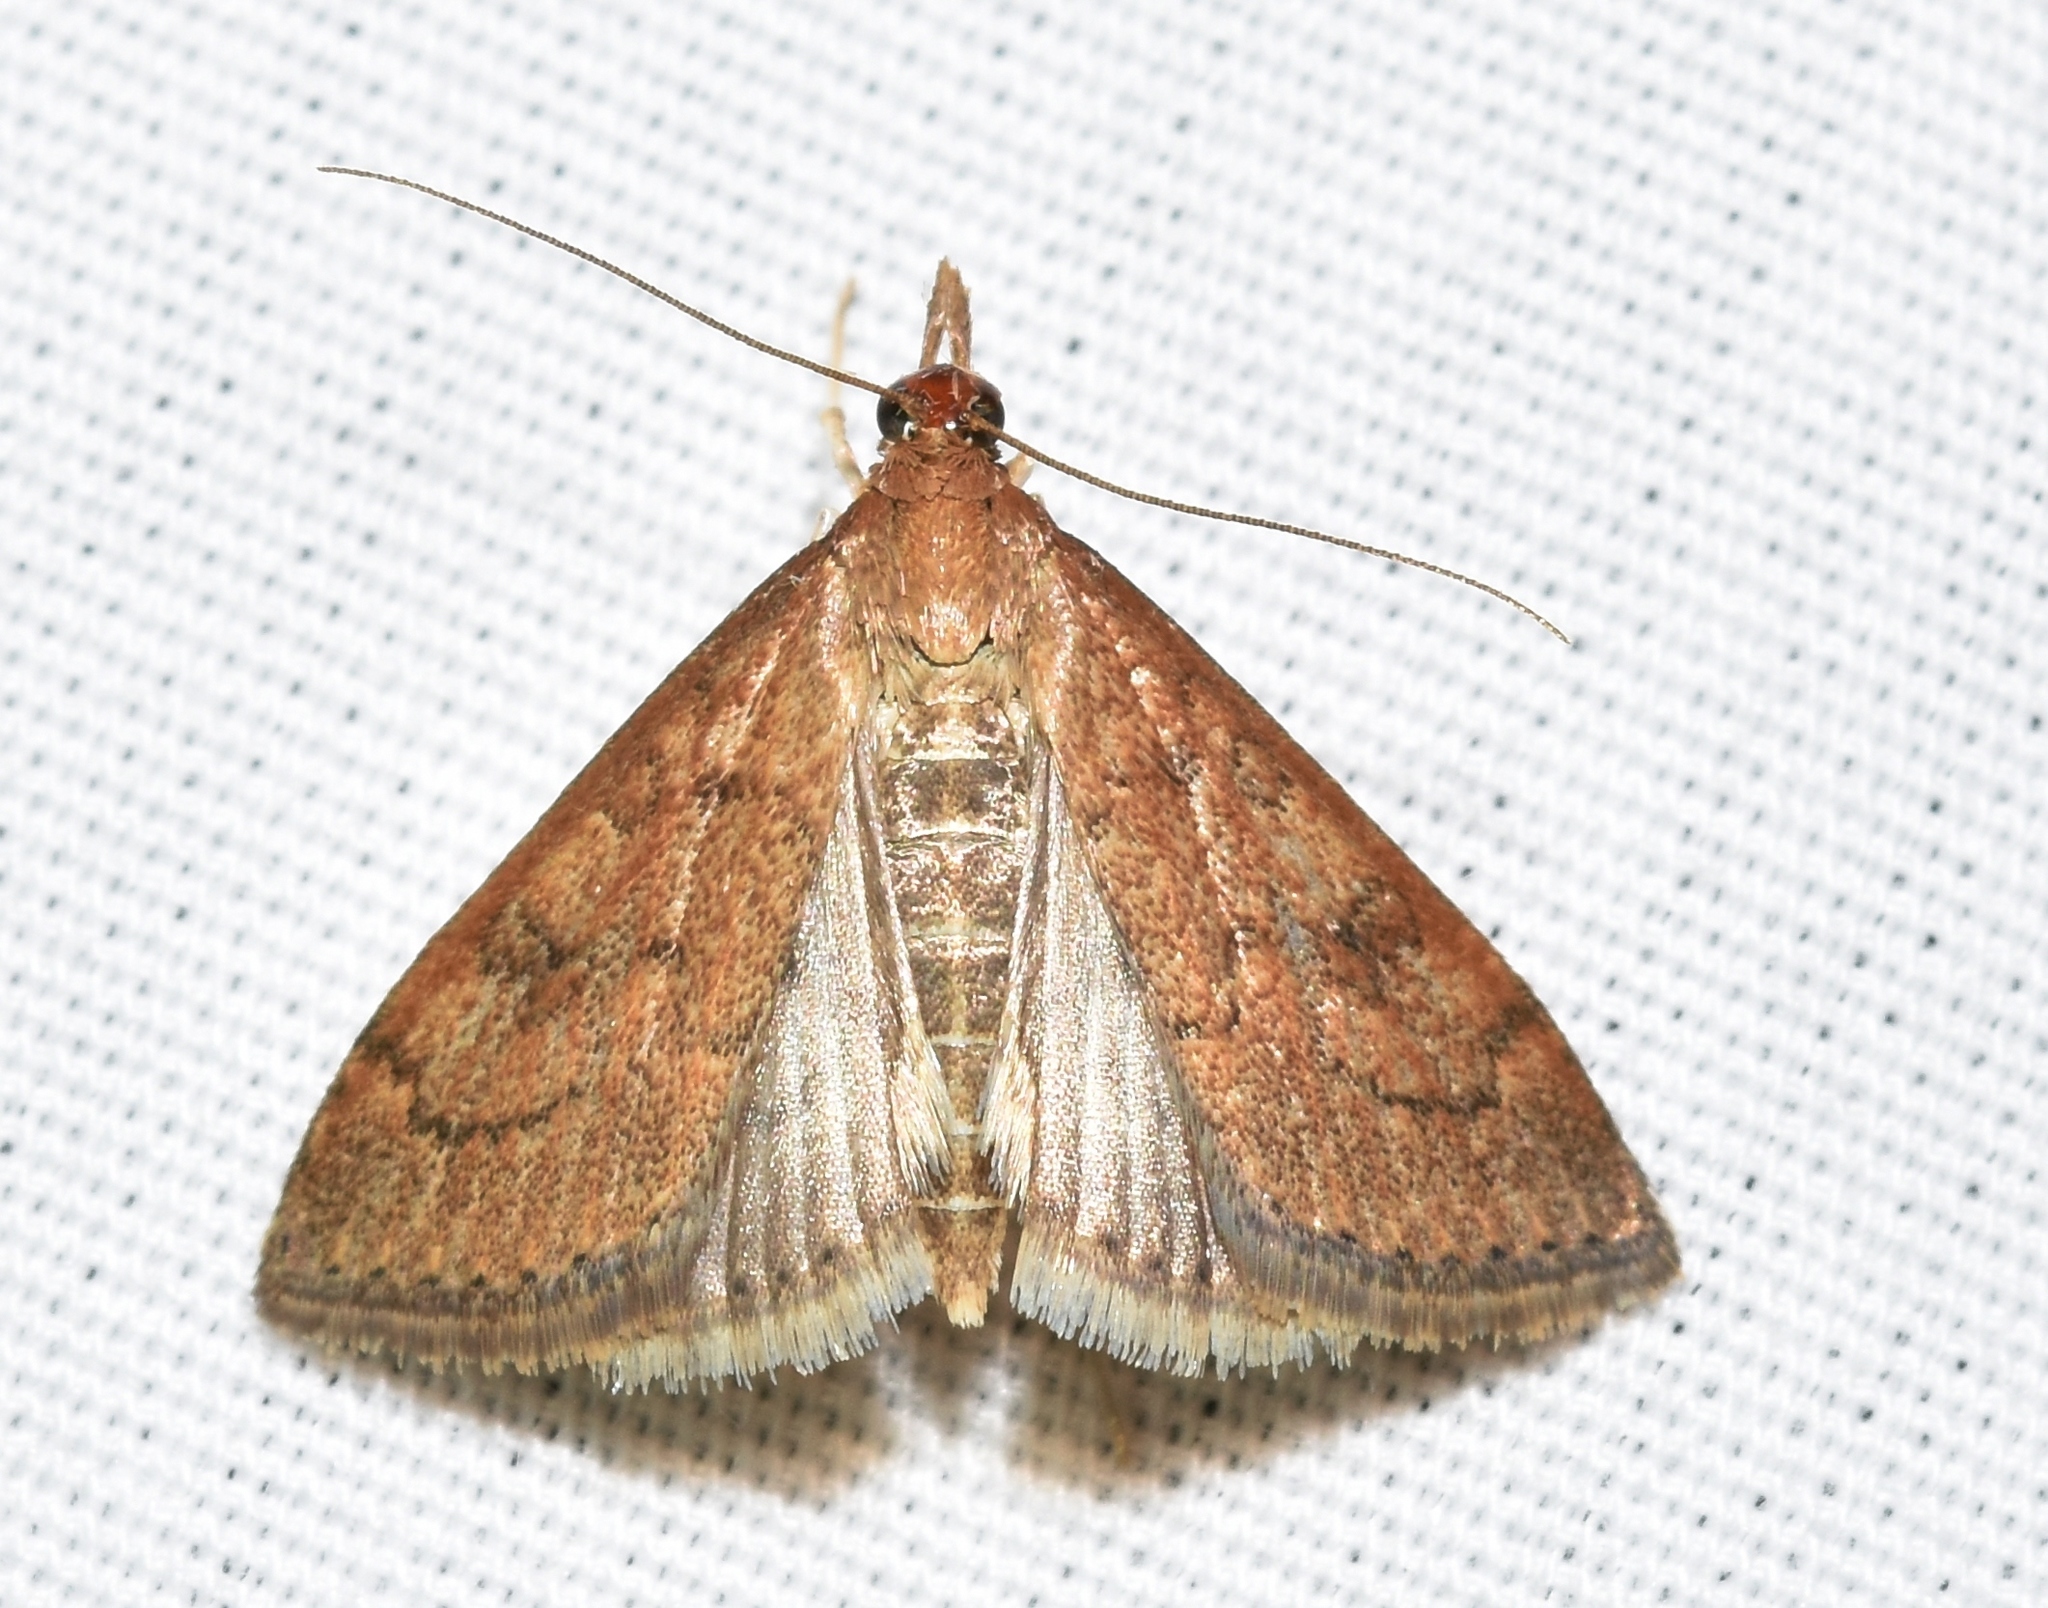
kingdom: Animalia
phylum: Arthropoda
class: Insecta
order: Lepidoptera
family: Crambidae
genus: Udea
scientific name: Udea rubigalis
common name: Celery leaftier moth
